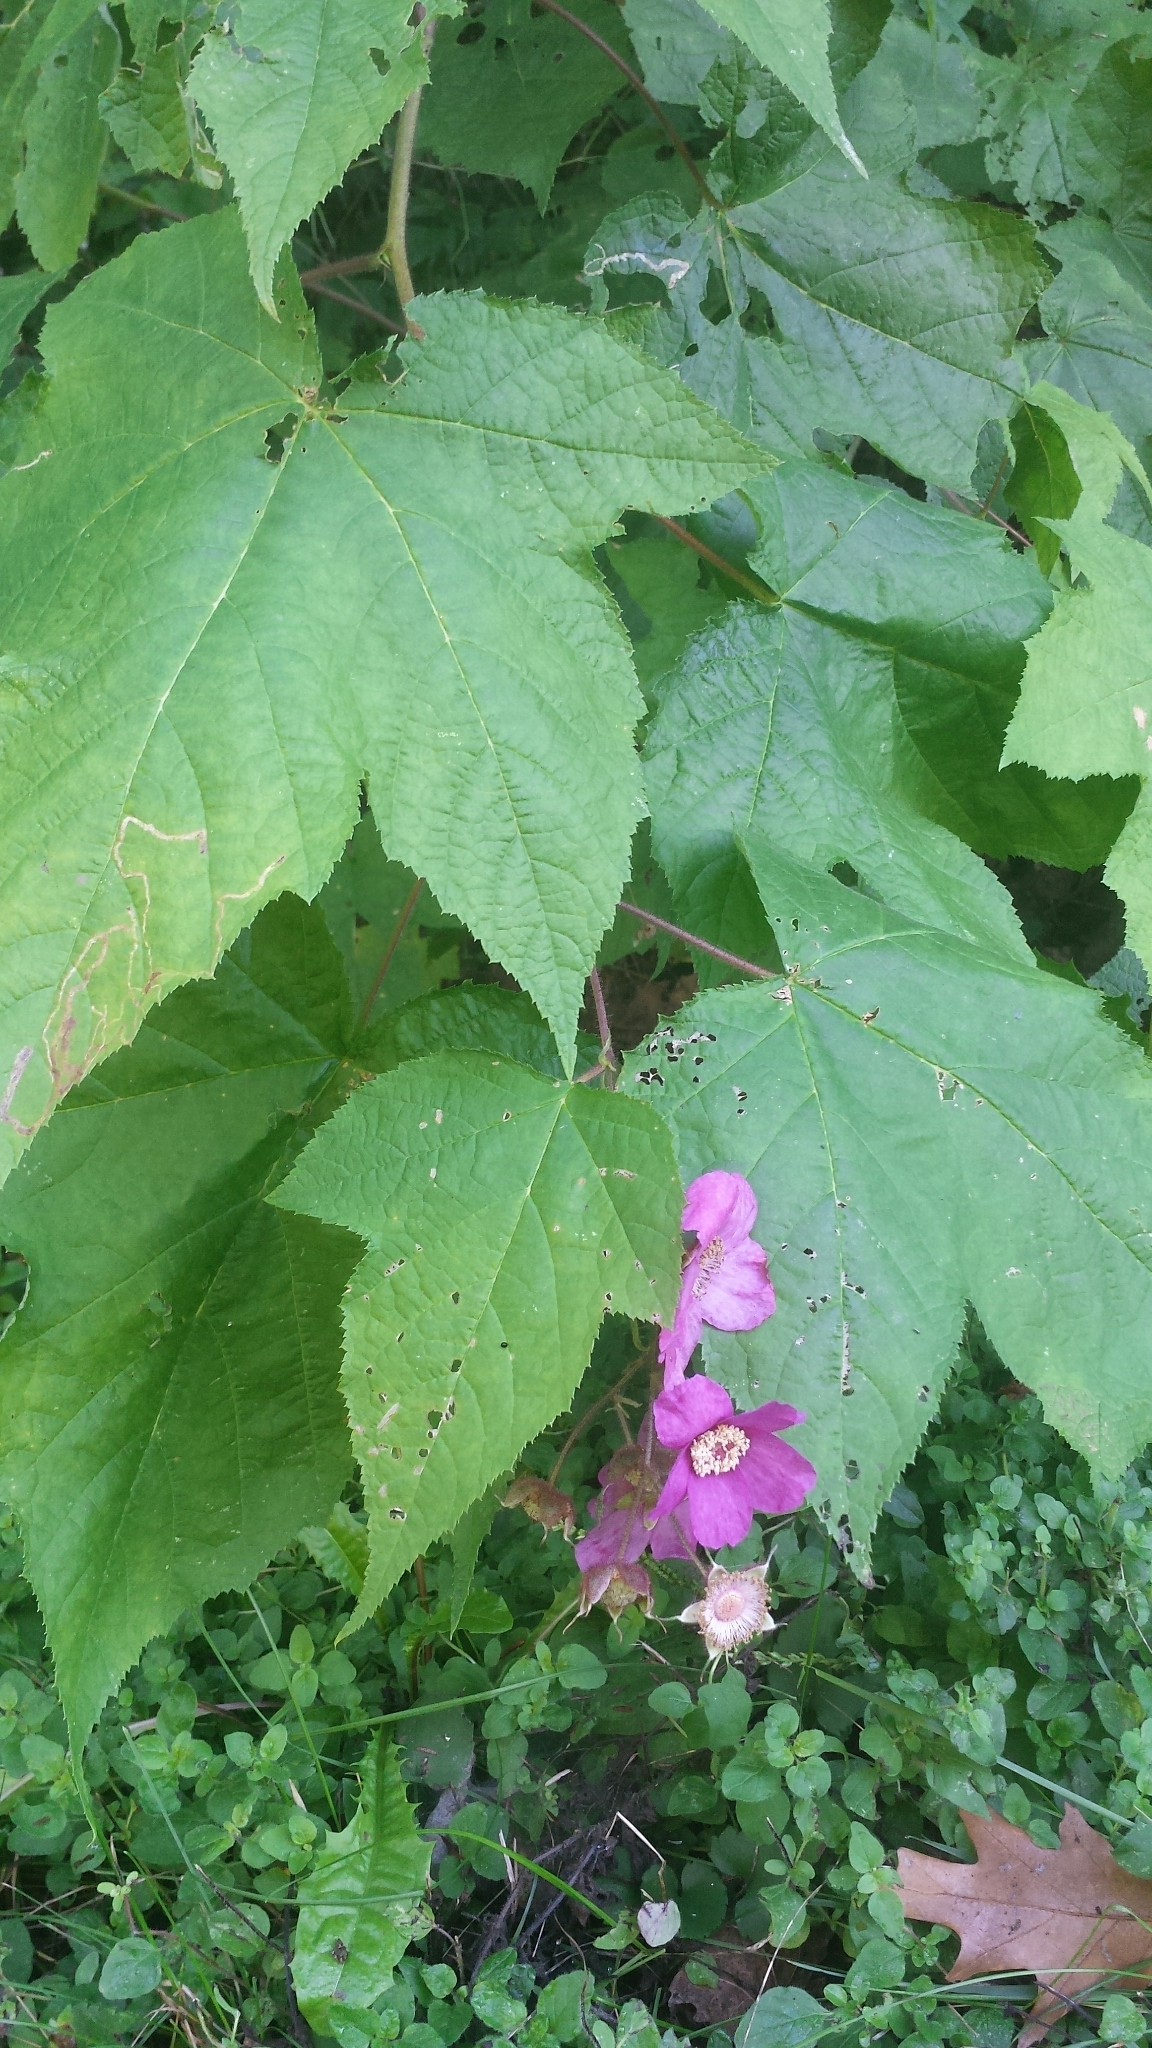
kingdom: Plantae
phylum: Tracheophyta
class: Magnoliopsida
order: Rosales
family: Rosaceae
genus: Rubus
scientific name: Rubus odoratus
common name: Purple-flowered raspberry
